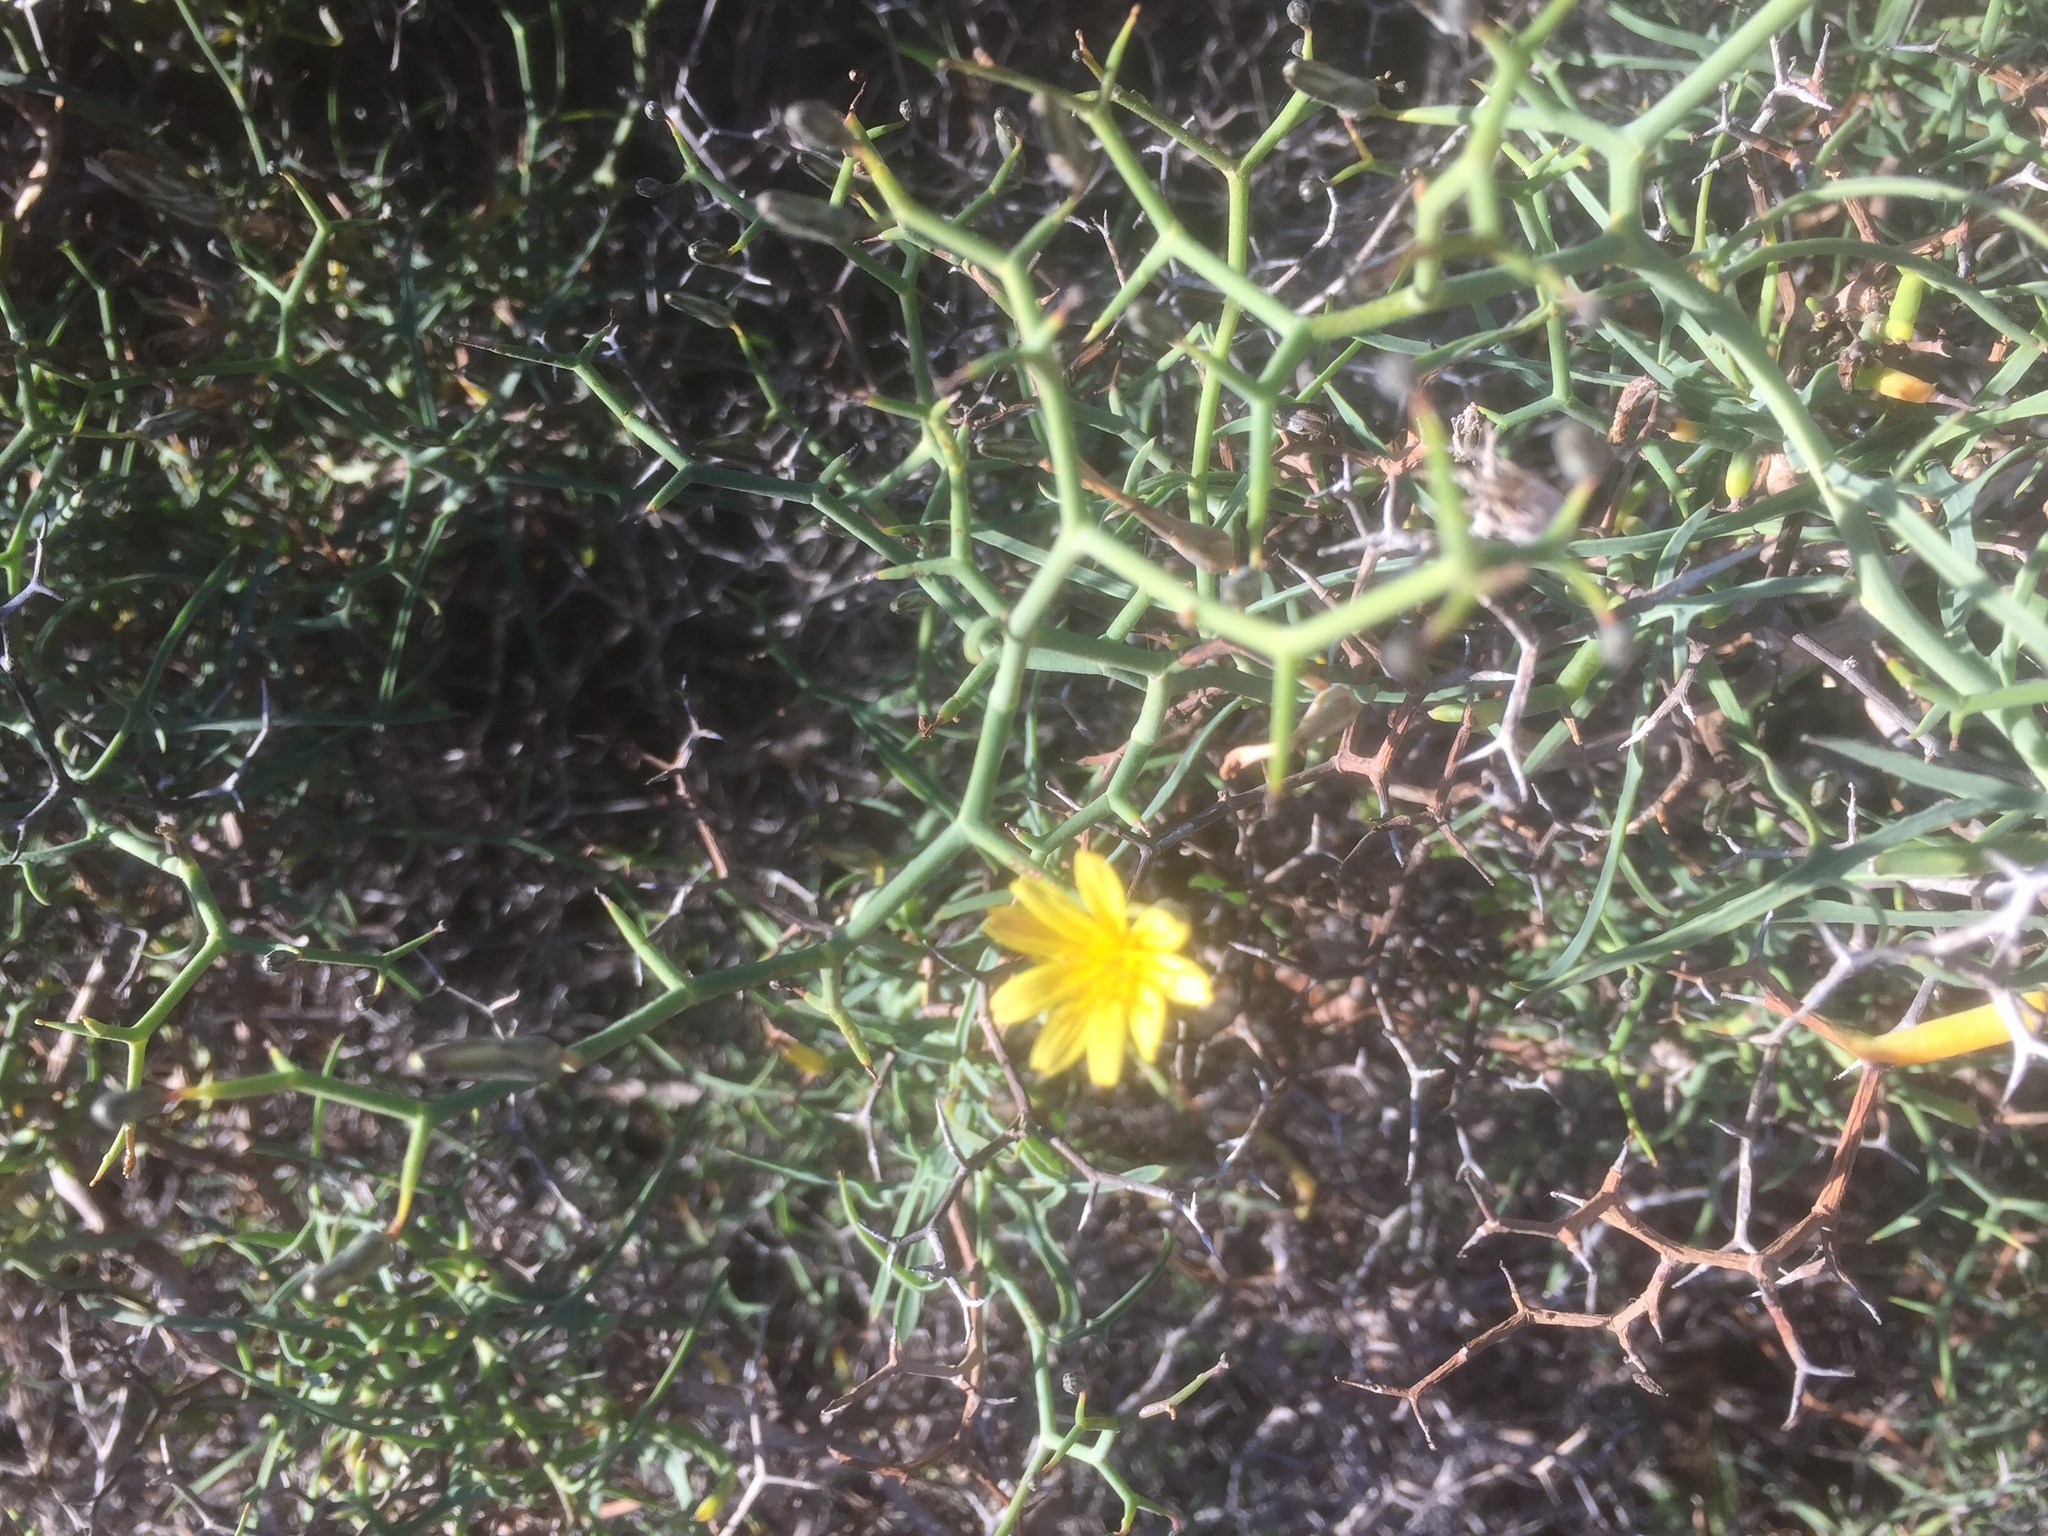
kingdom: Plantae
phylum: Tracheophyta
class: Magnoliopsida
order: Asterales
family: Asteraceae
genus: Launaea
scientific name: Launaea arborescens
